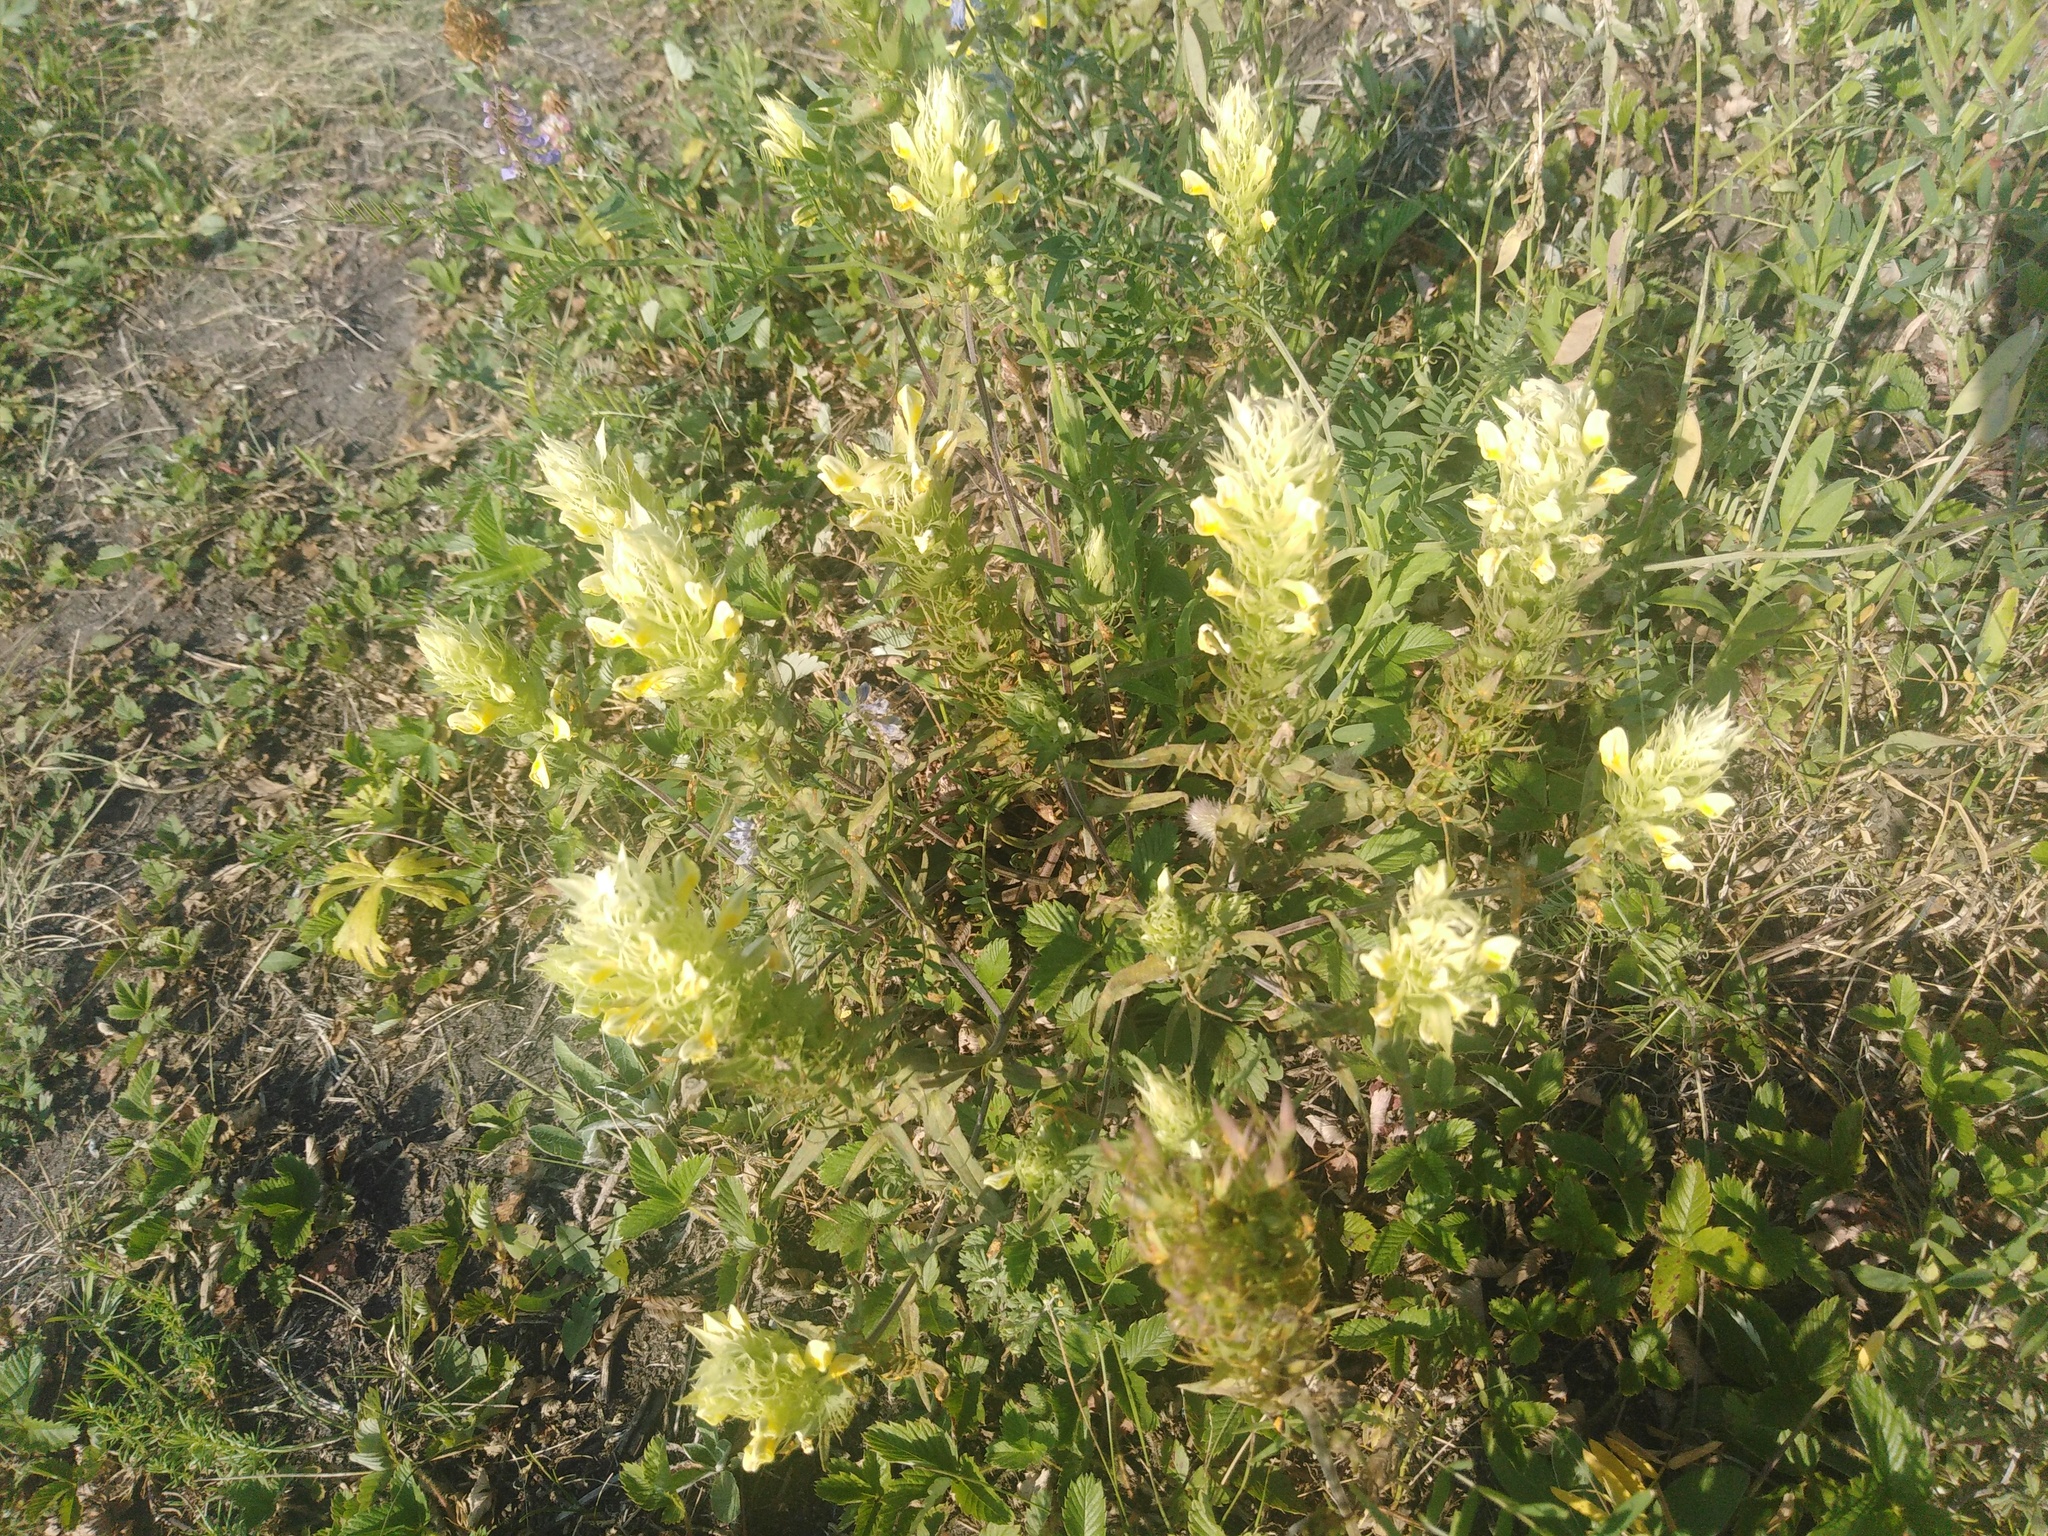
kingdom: Plantae
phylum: Tracheophyta
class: Magnoliopsida
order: Lamiales
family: Orobanchaceae
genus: Melampyrum
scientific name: Melampyrum arvense
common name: Field cow-wheat
